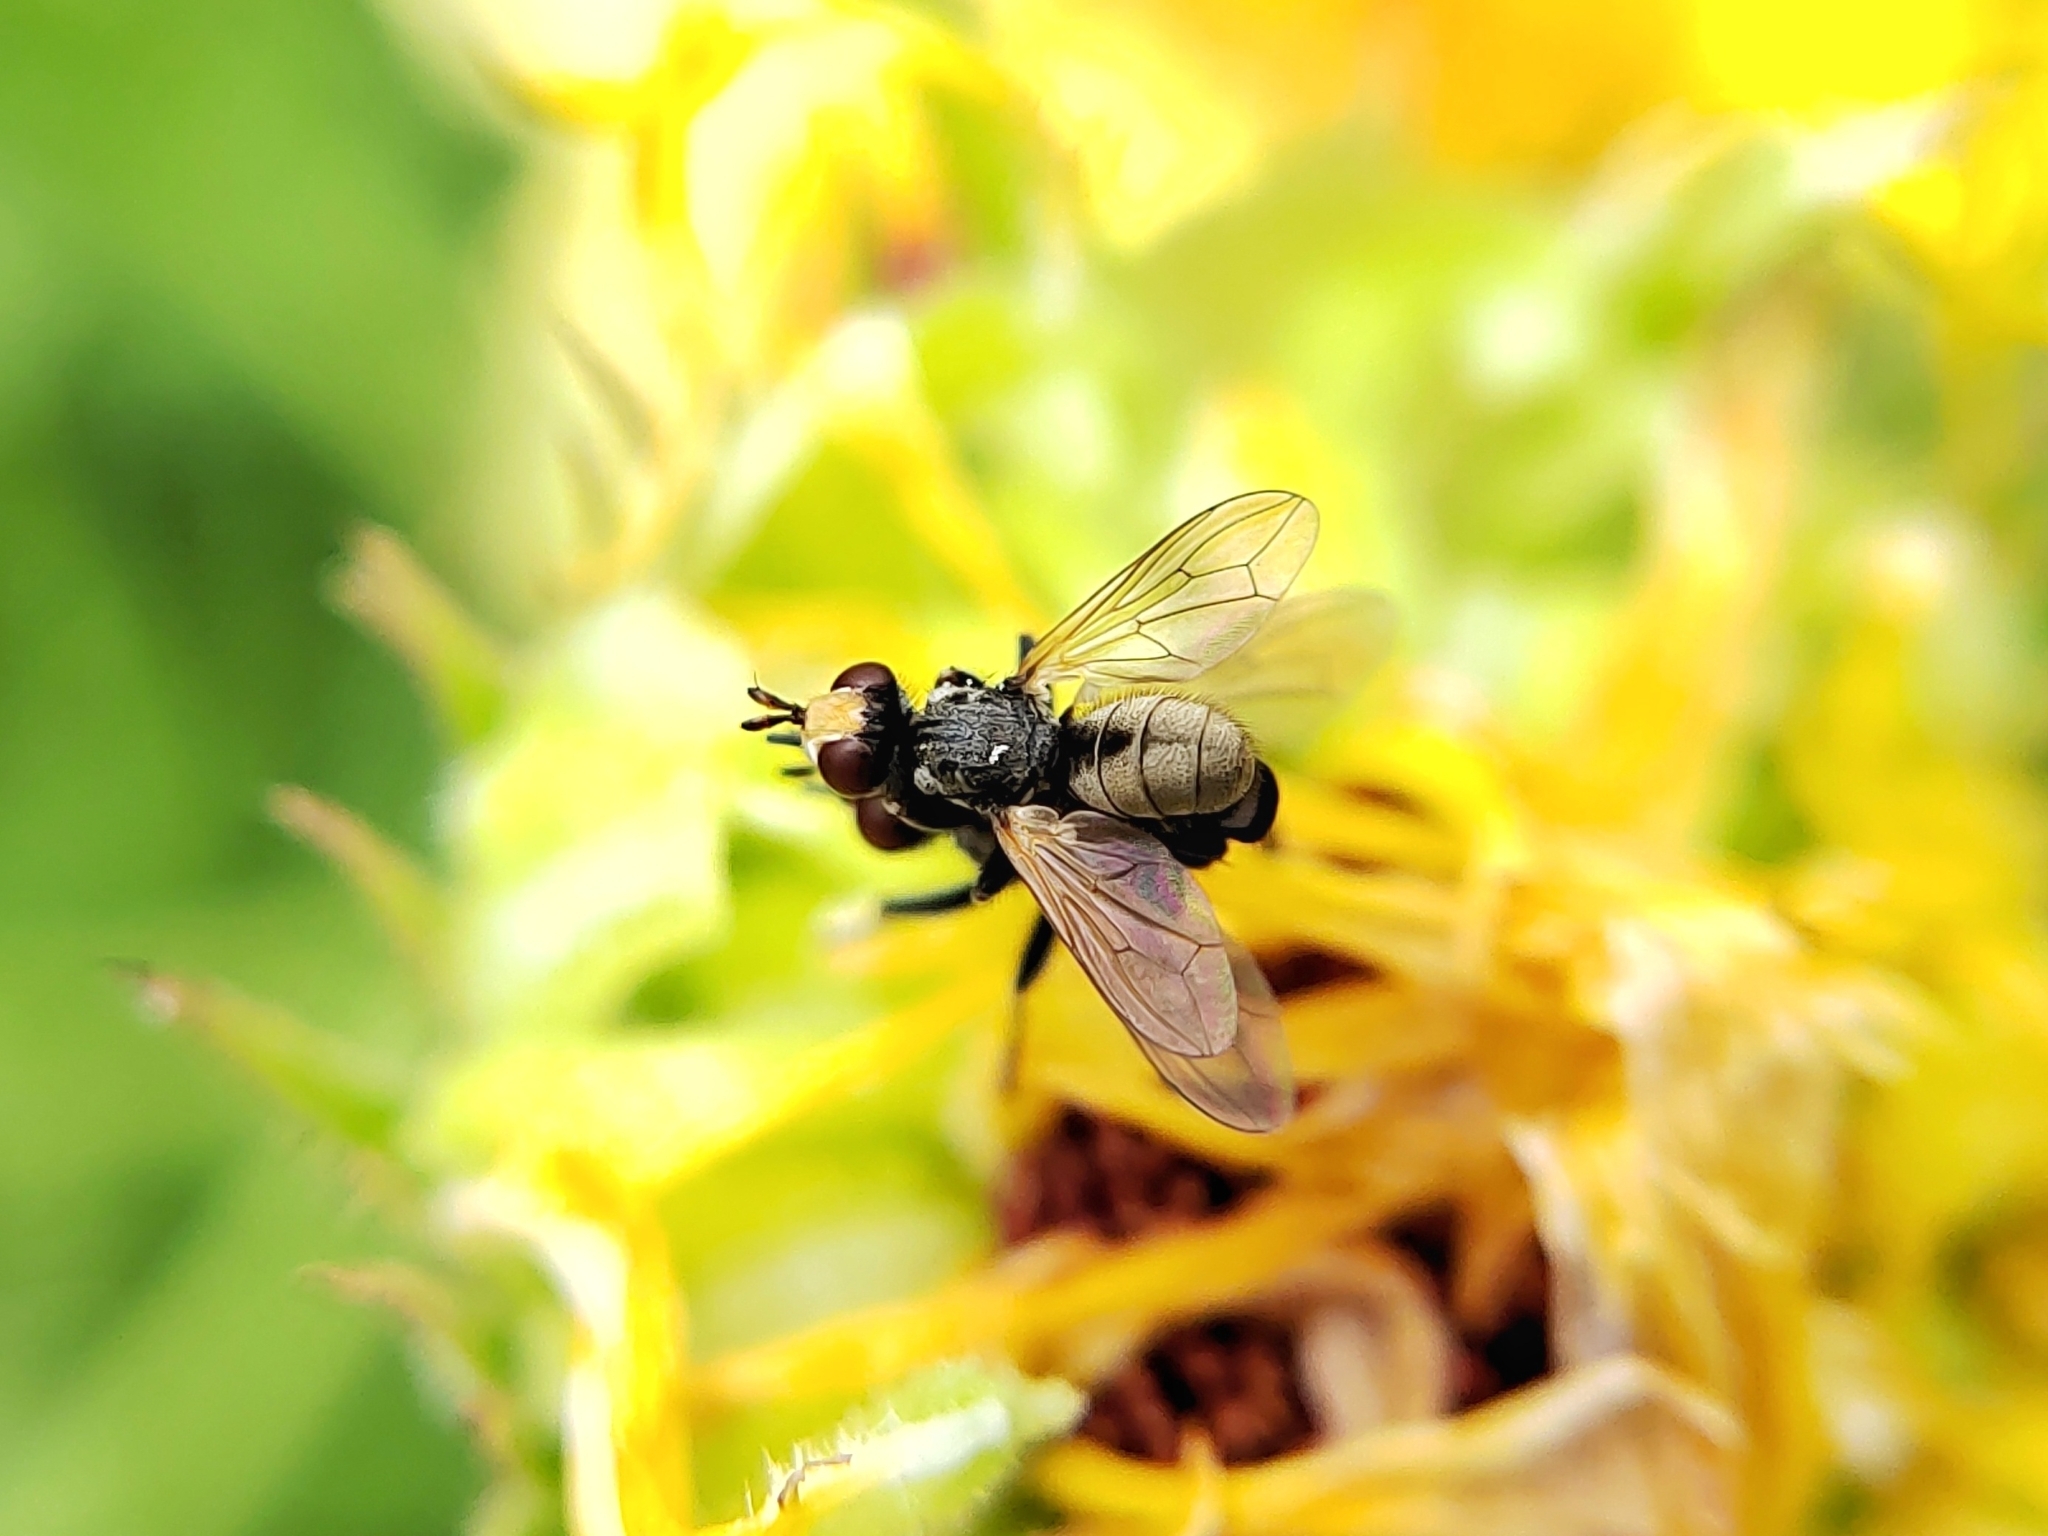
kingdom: Animalia
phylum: Arthropoda
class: Insecta
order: Diptera
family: Conopidae
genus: Thecophora
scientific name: Thecophora
